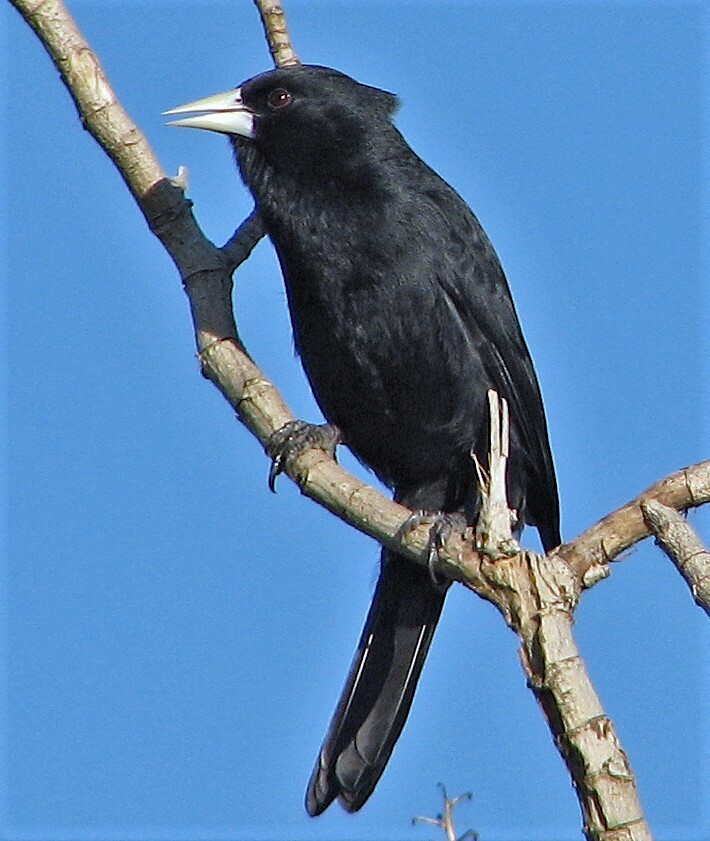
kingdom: Animalia
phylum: Chordata
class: Aves
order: Passeriformes
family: Icteridae
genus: Cacicus
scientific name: Cacicus solitarius
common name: Solitary cacique
